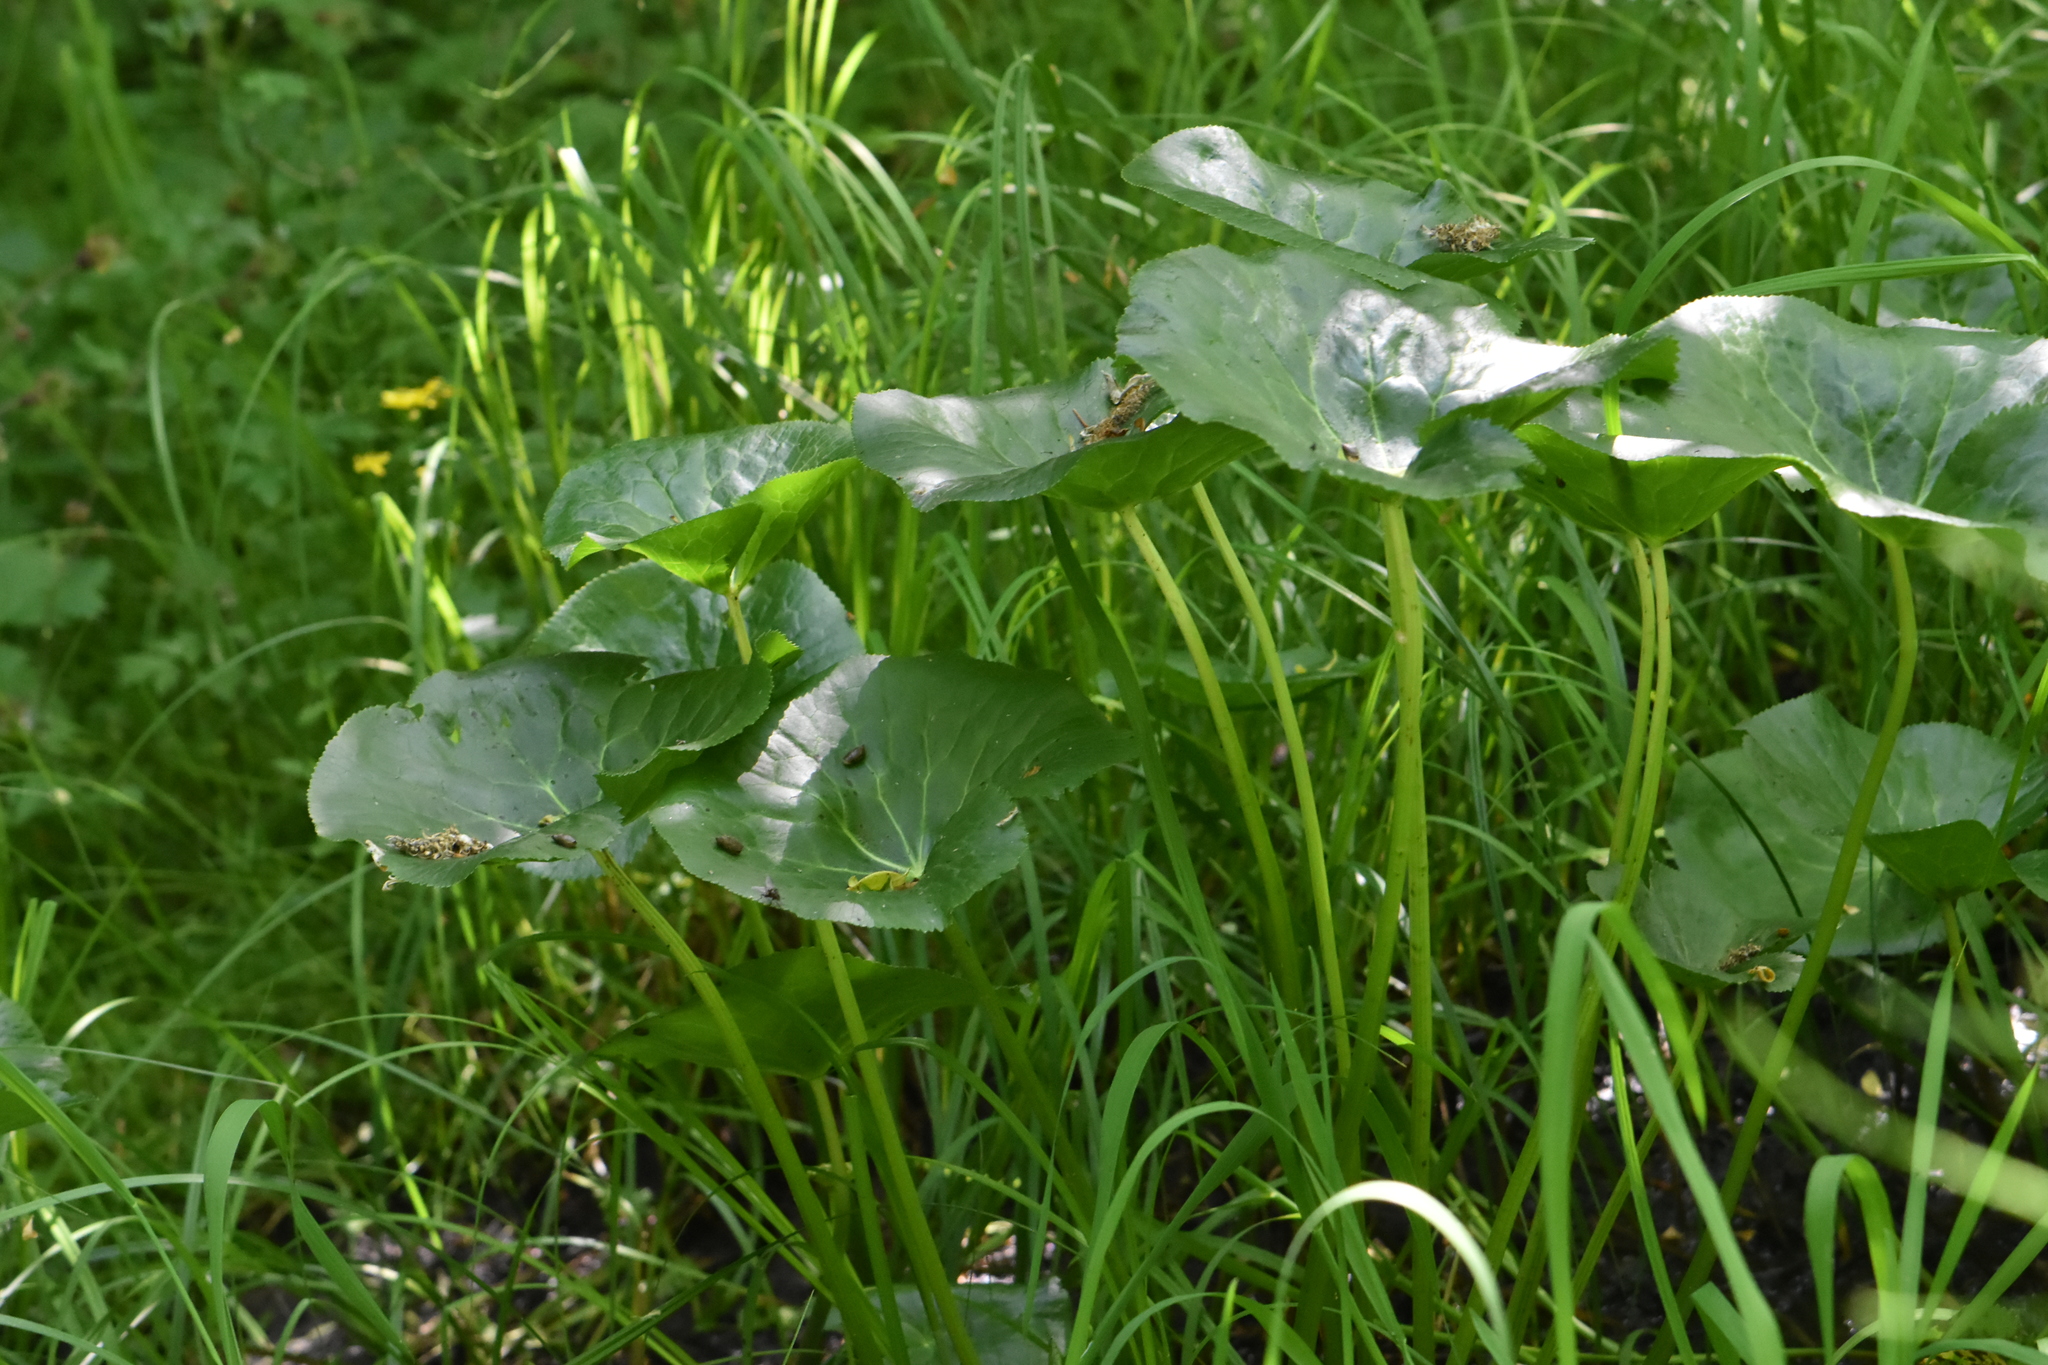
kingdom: Plantae
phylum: Tracheophyta
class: Magnoliopsida
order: Ranunculales
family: Ranunculaceae
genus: Caltha
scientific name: Caltha palustris
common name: Marsh marigold
